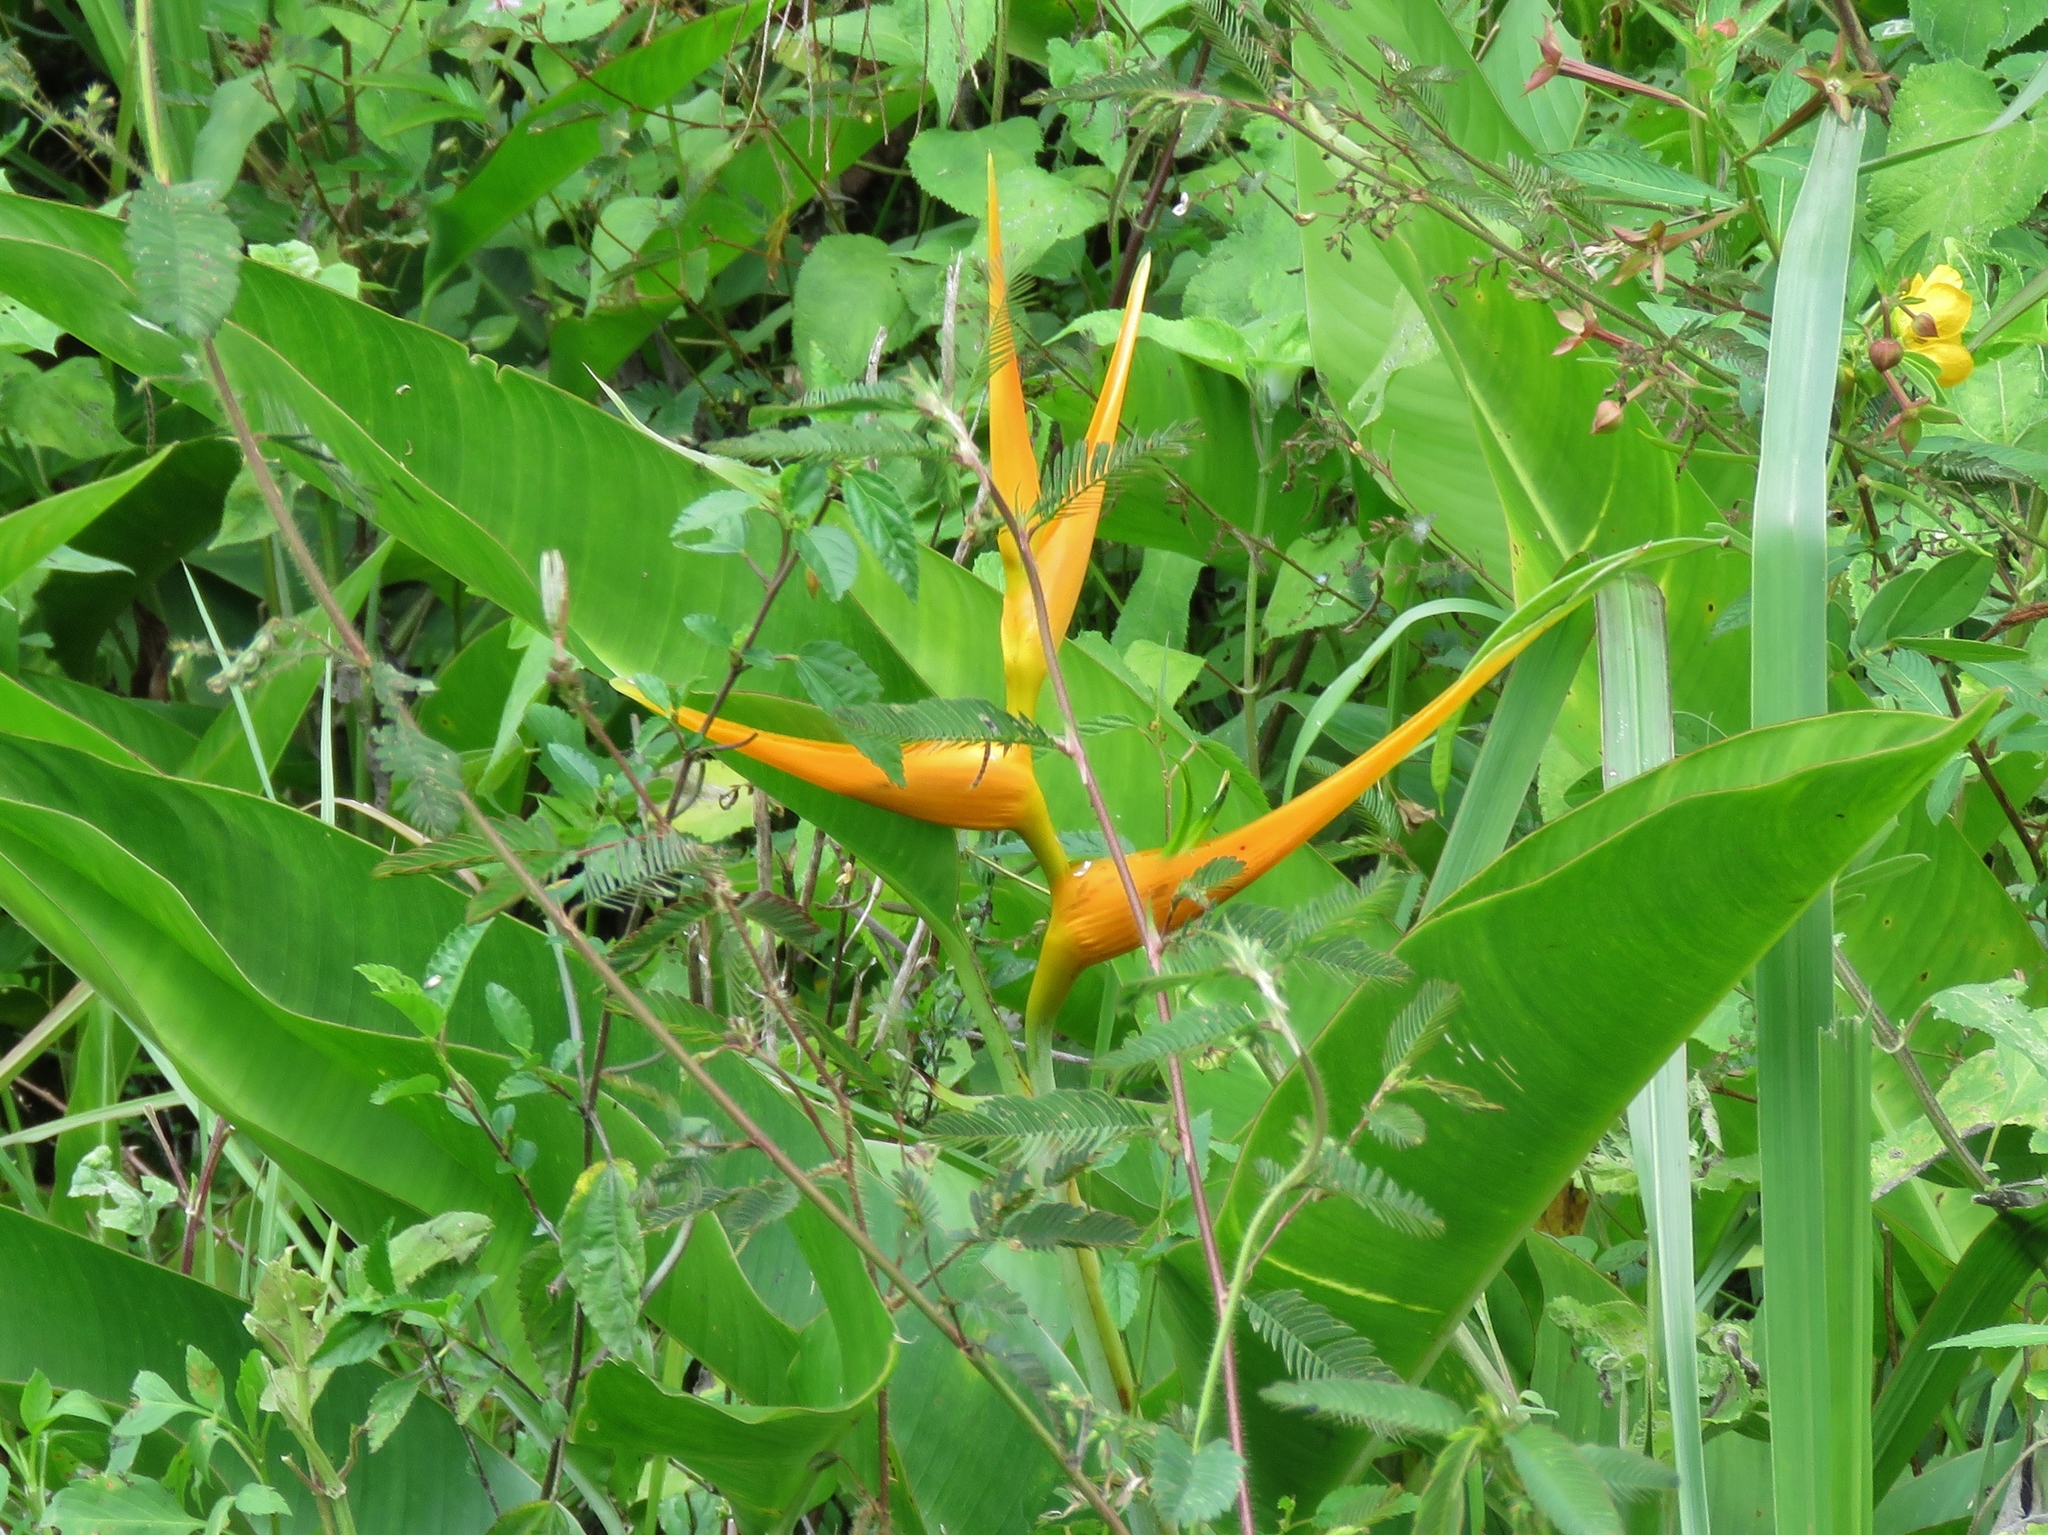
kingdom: Plantae
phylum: Tracheophyta
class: Liliopsida
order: Zingiberales
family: Heliconiaceae
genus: Heliconia
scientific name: Heliconia latispatha
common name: Expanded lobsterclaw
